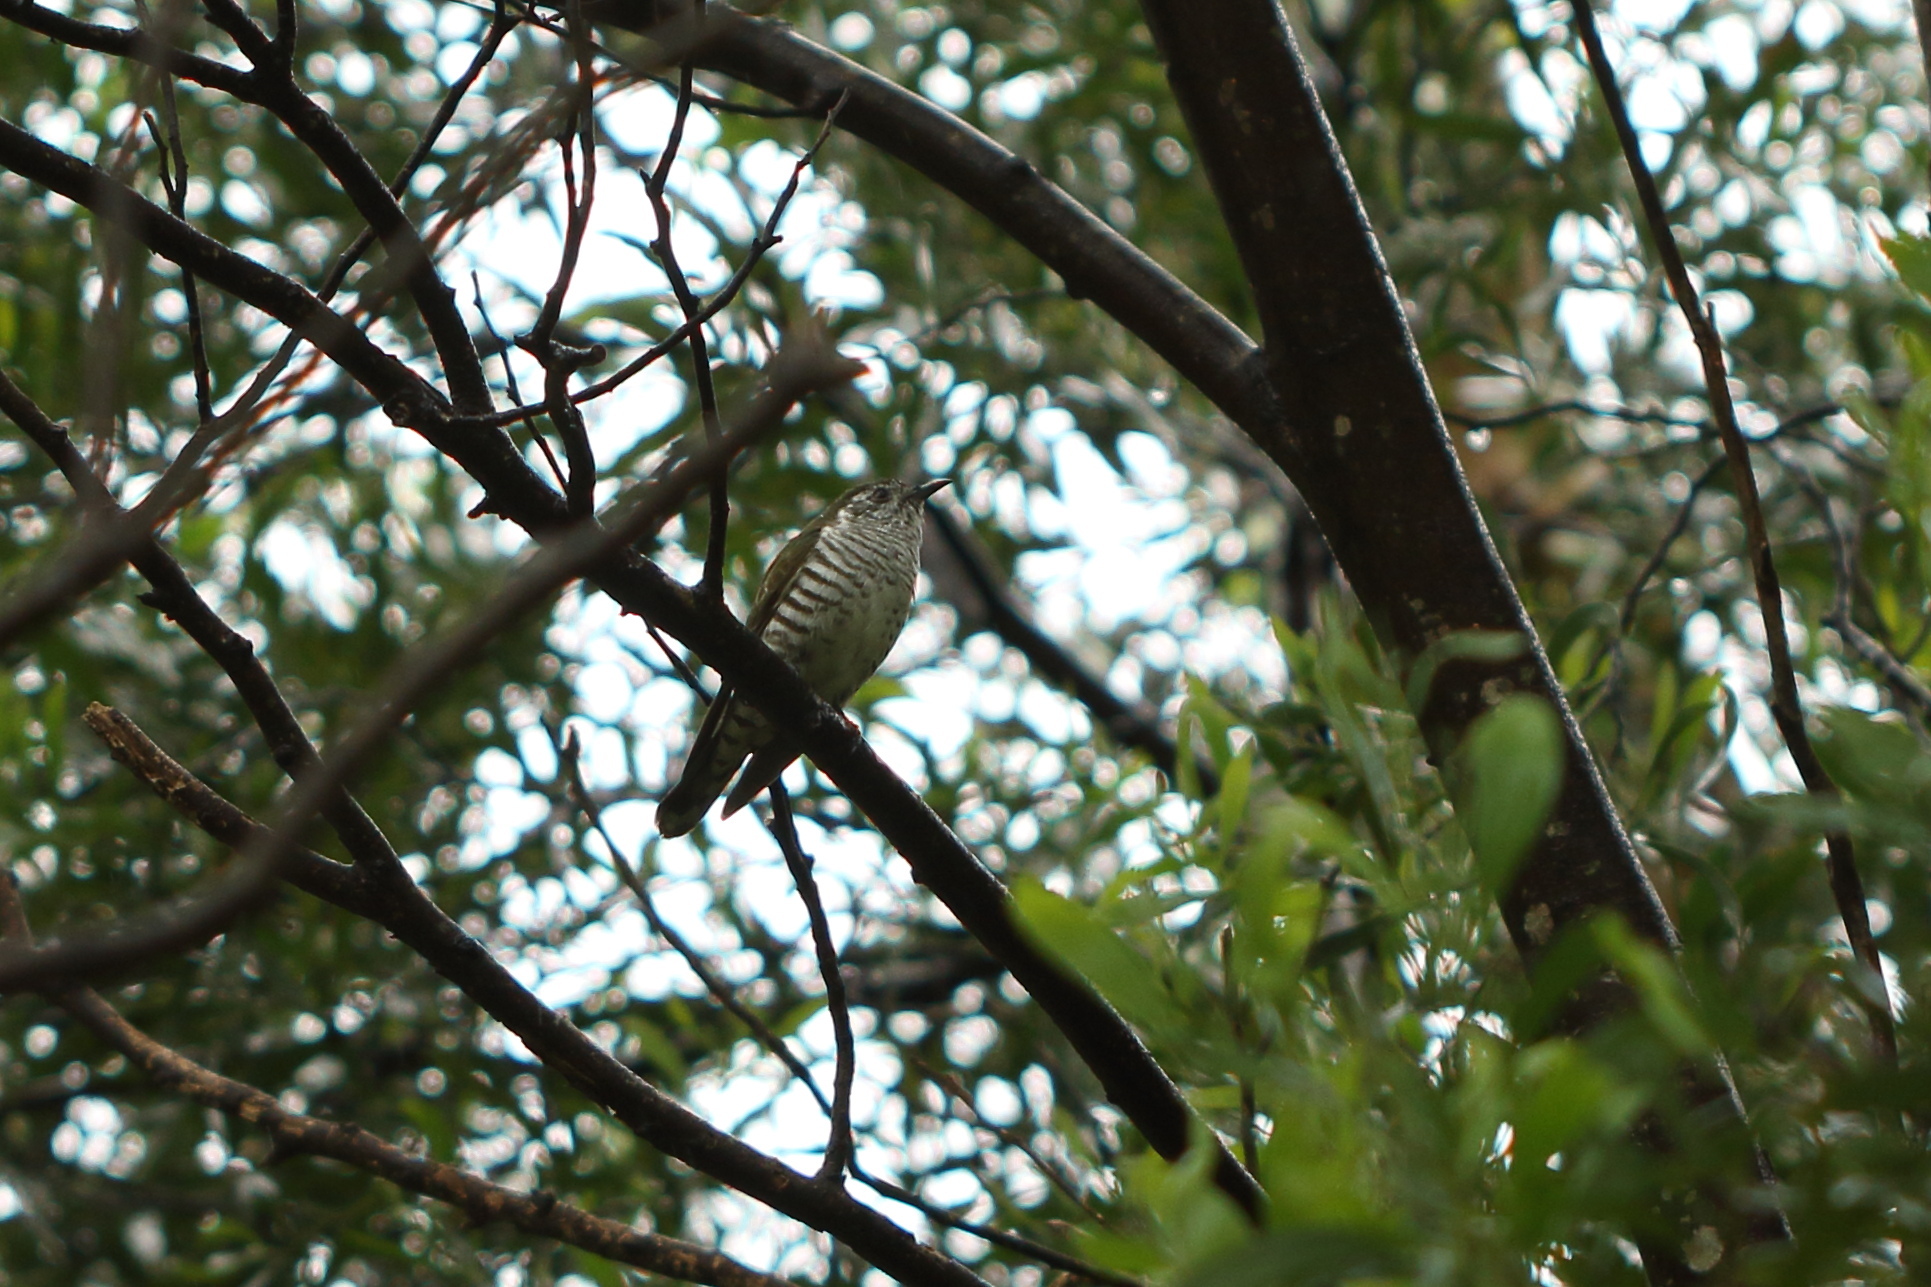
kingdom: Animalia
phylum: Chordata
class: Aves
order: Cuculiformes
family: Cuculidae
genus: Chrysococcyx
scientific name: Chrysococcyx lucidus
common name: Shining bronze cuckoo
